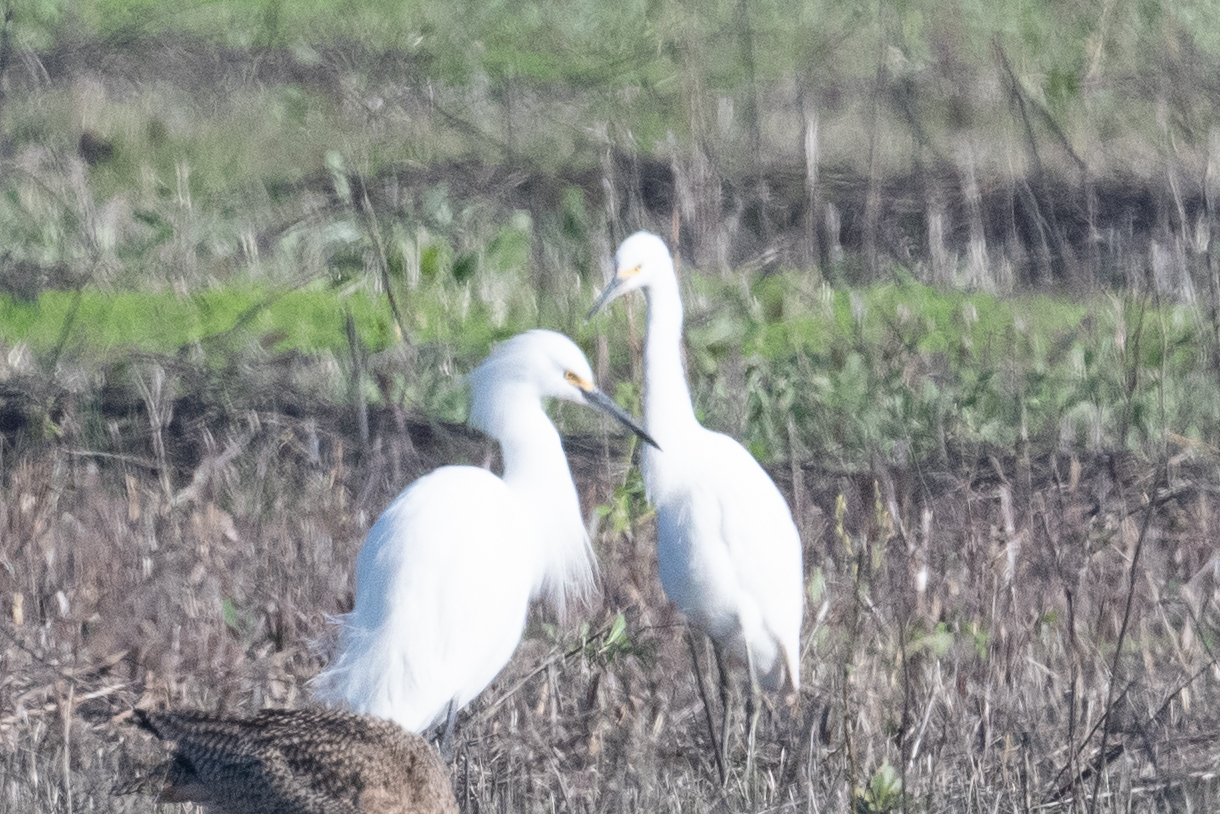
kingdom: Animalia
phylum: Chordata
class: Aves
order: Pelecaniformes
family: Ardeidae
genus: Egretta
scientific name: Egretta thula
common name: Snowy egret
